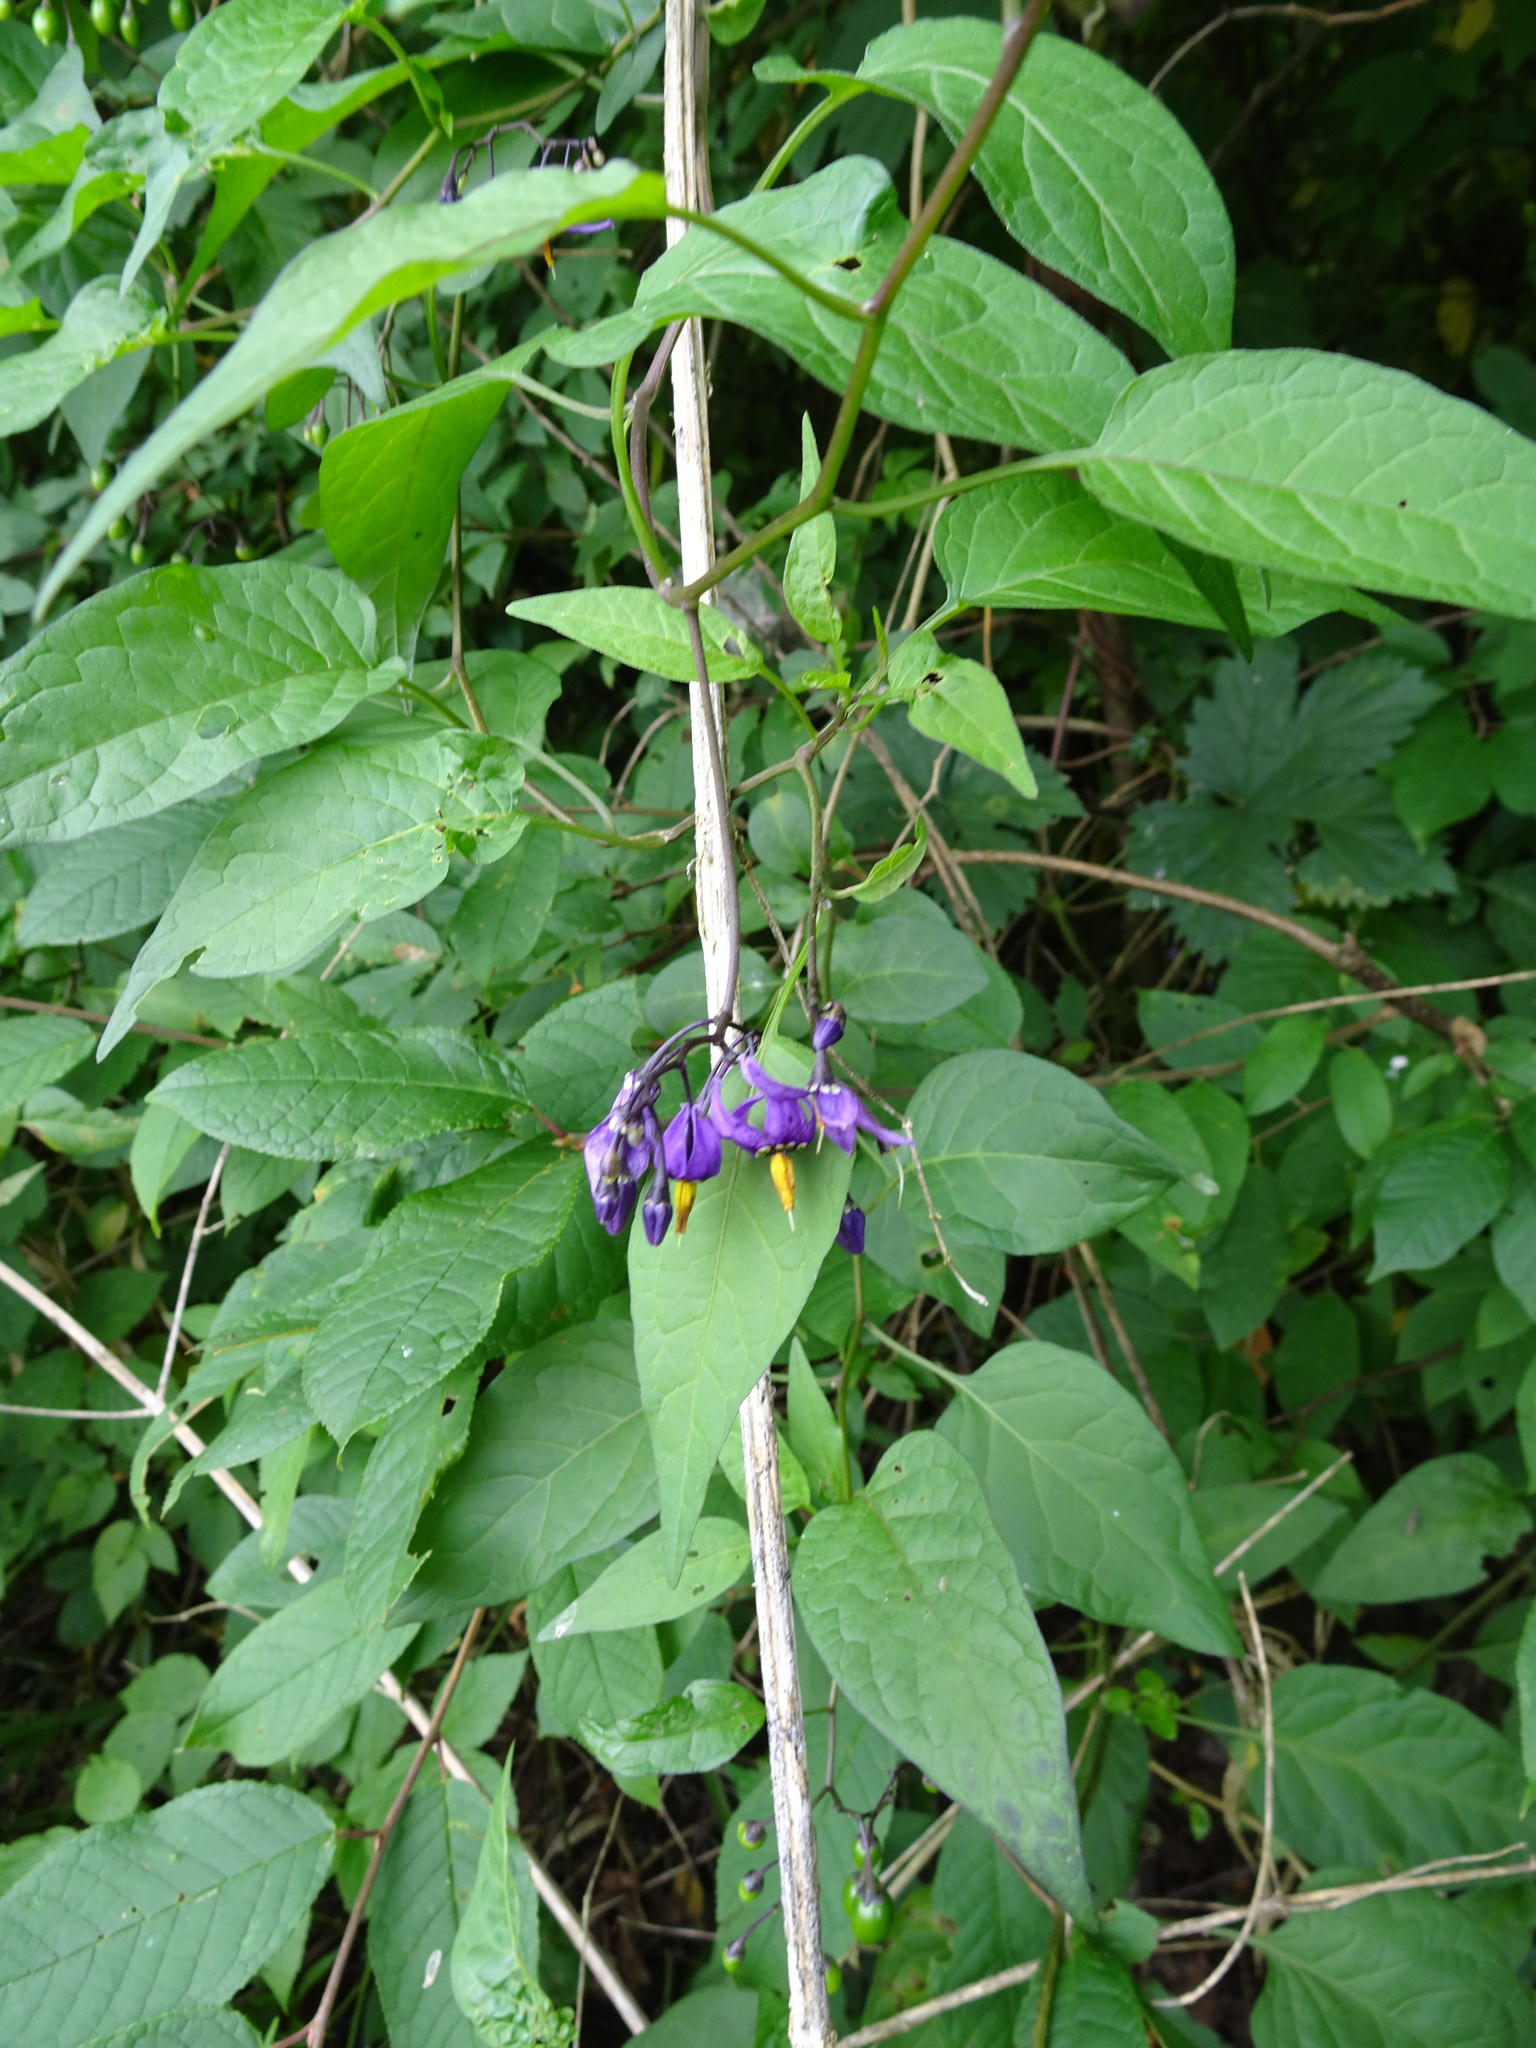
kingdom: Plantae
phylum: Tracheophyta
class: Magnoliopsida
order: Solanales
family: Solanaceae
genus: Solanum
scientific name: Solanum dulcamara
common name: Climbing nightshade
